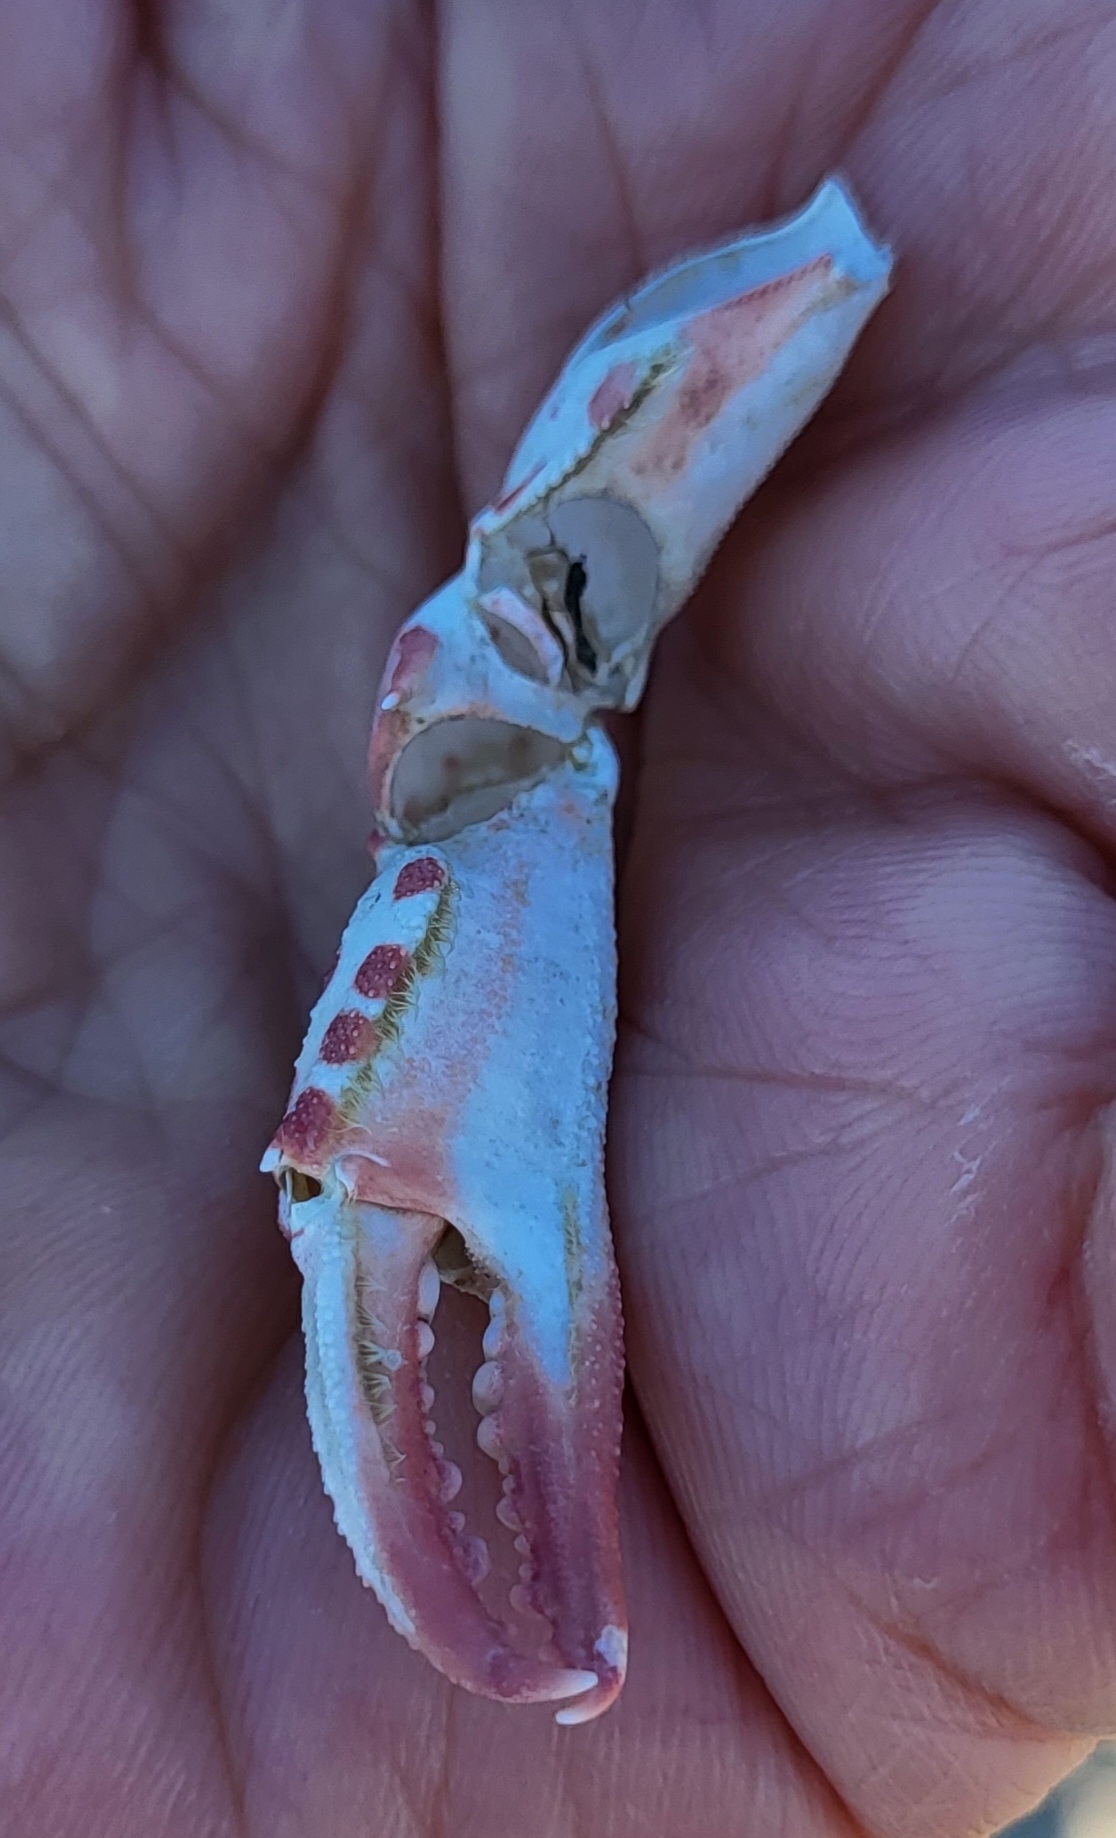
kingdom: Animalia
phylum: Arthropoda
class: Malacostraca
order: Decapoda
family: Ovalipidae
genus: Ovalipes
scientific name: Ovalipes ocellatus
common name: Lady crab
